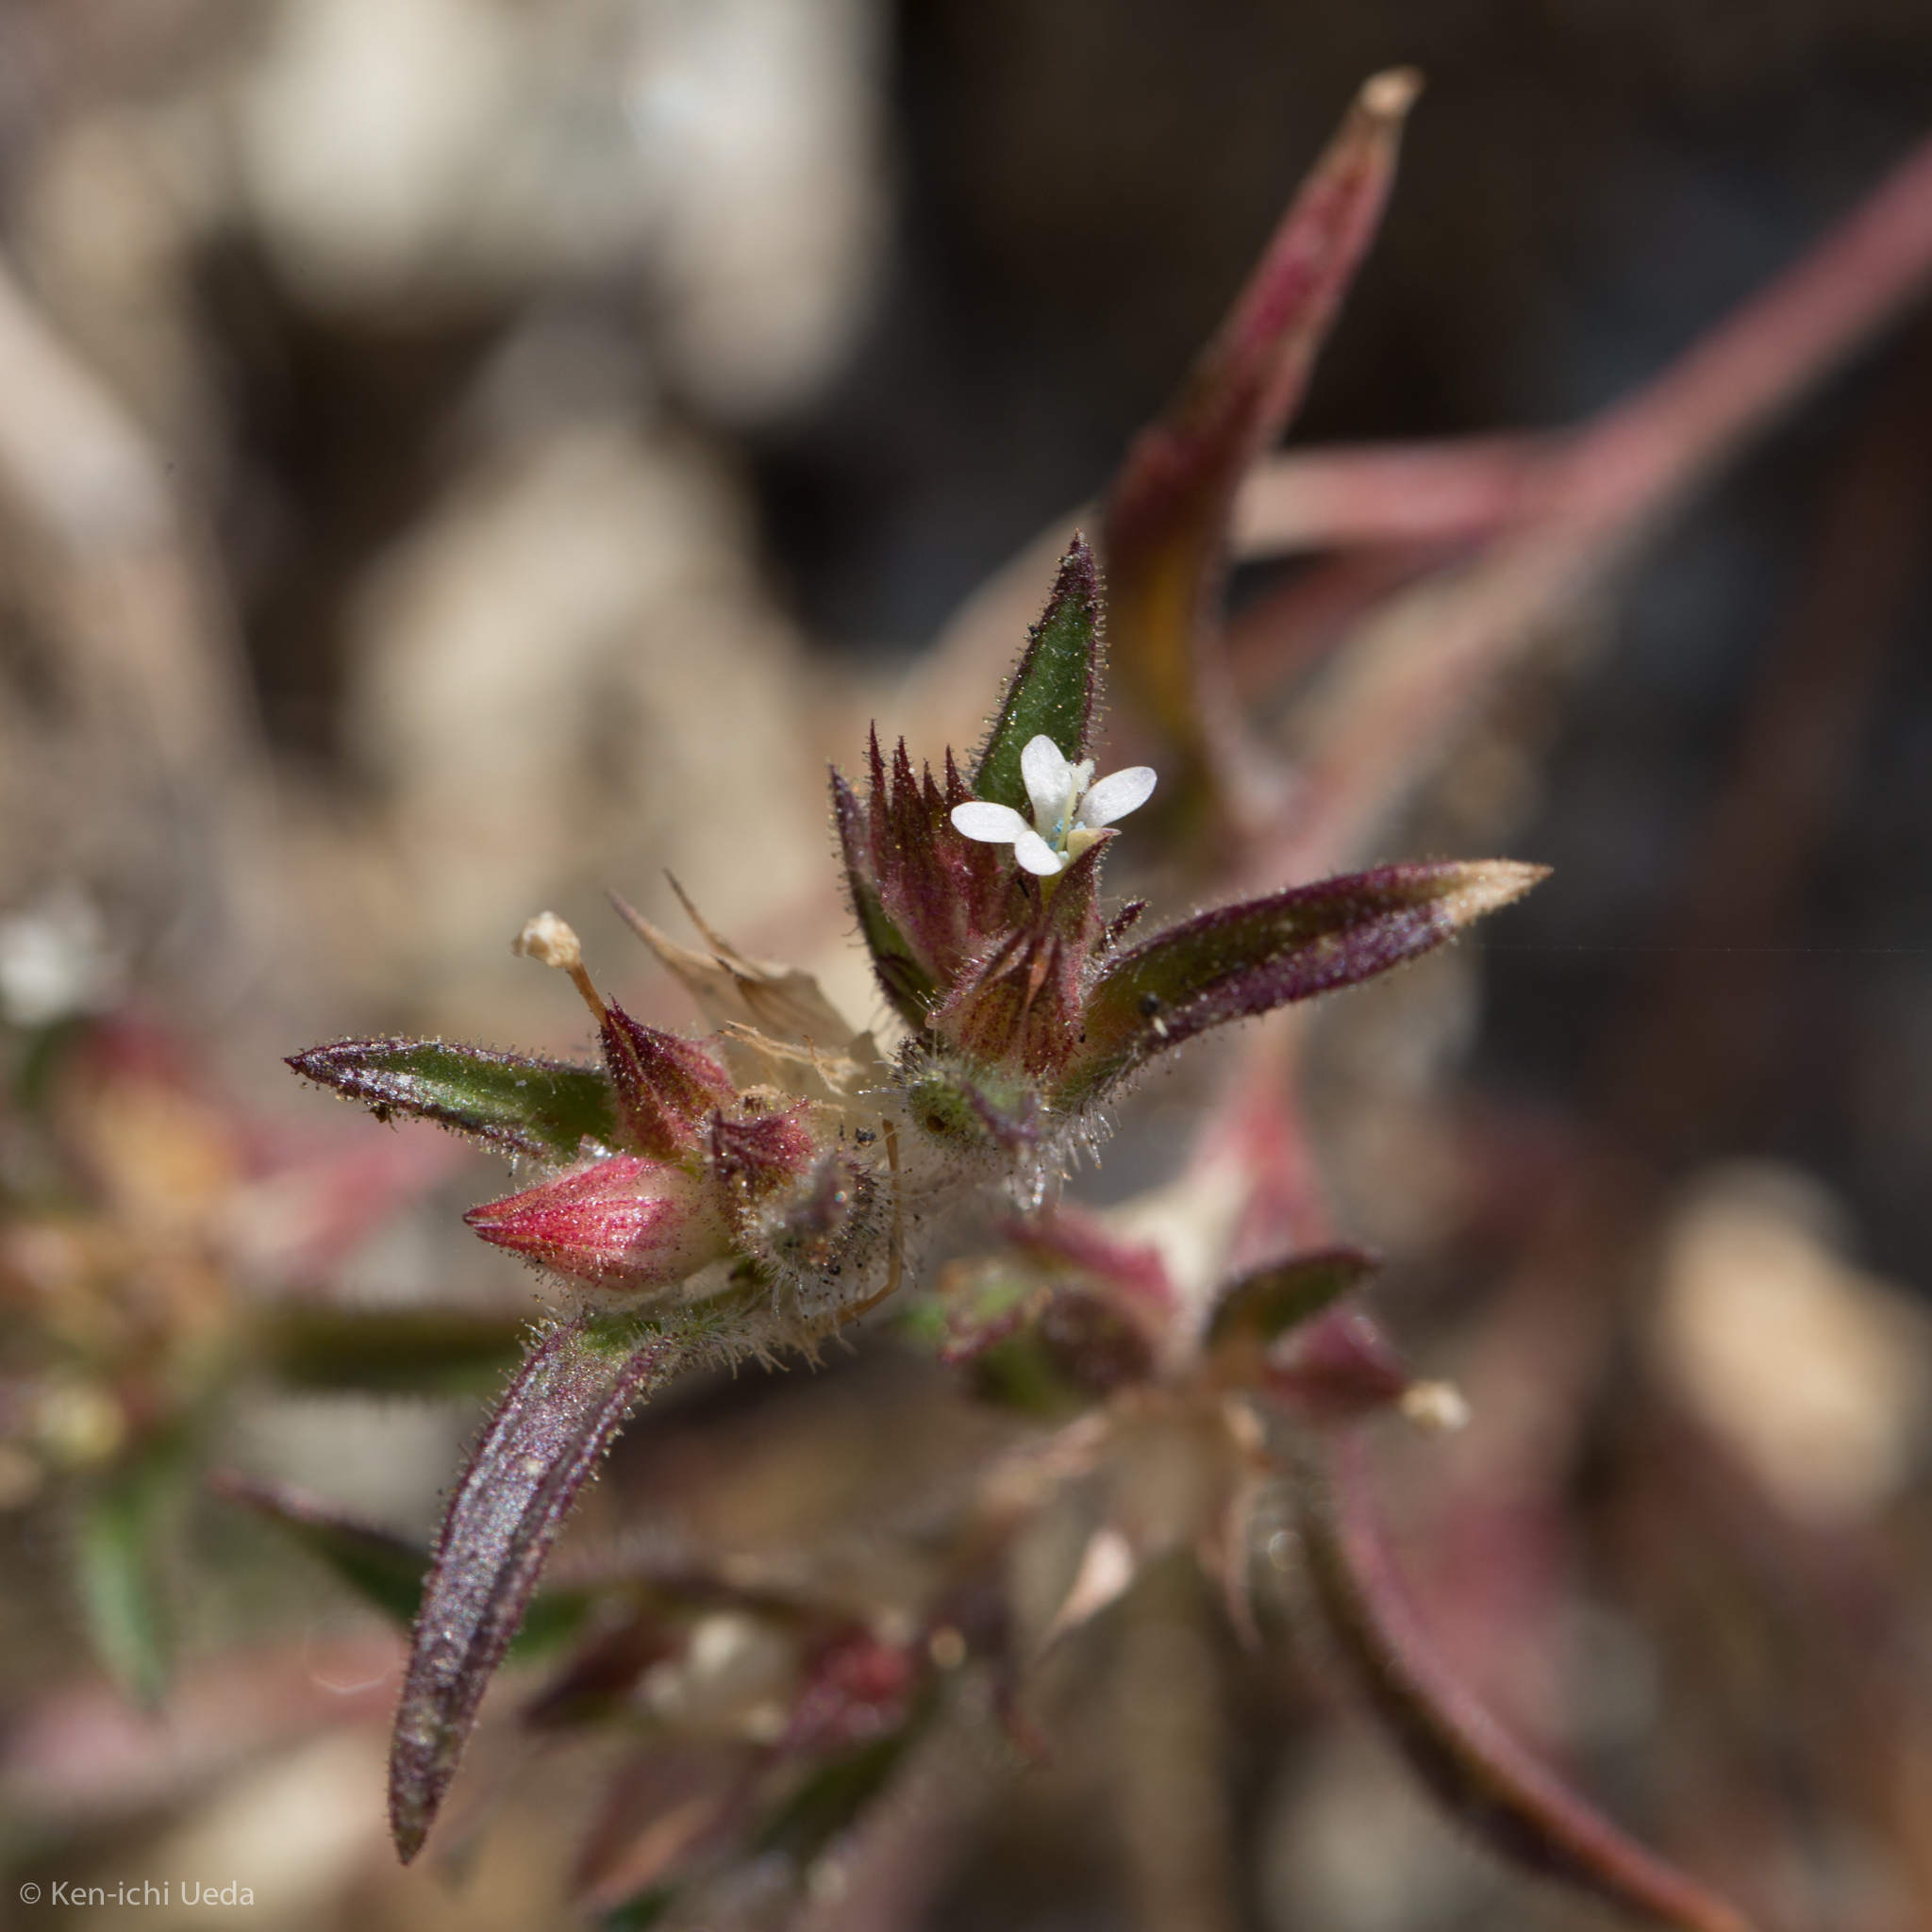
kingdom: Plantae
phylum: Tracheophyta
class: Magnoliopsida
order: Ericales
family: Polemoniaceae
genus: Collomia
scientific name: Collomia tinctoria
